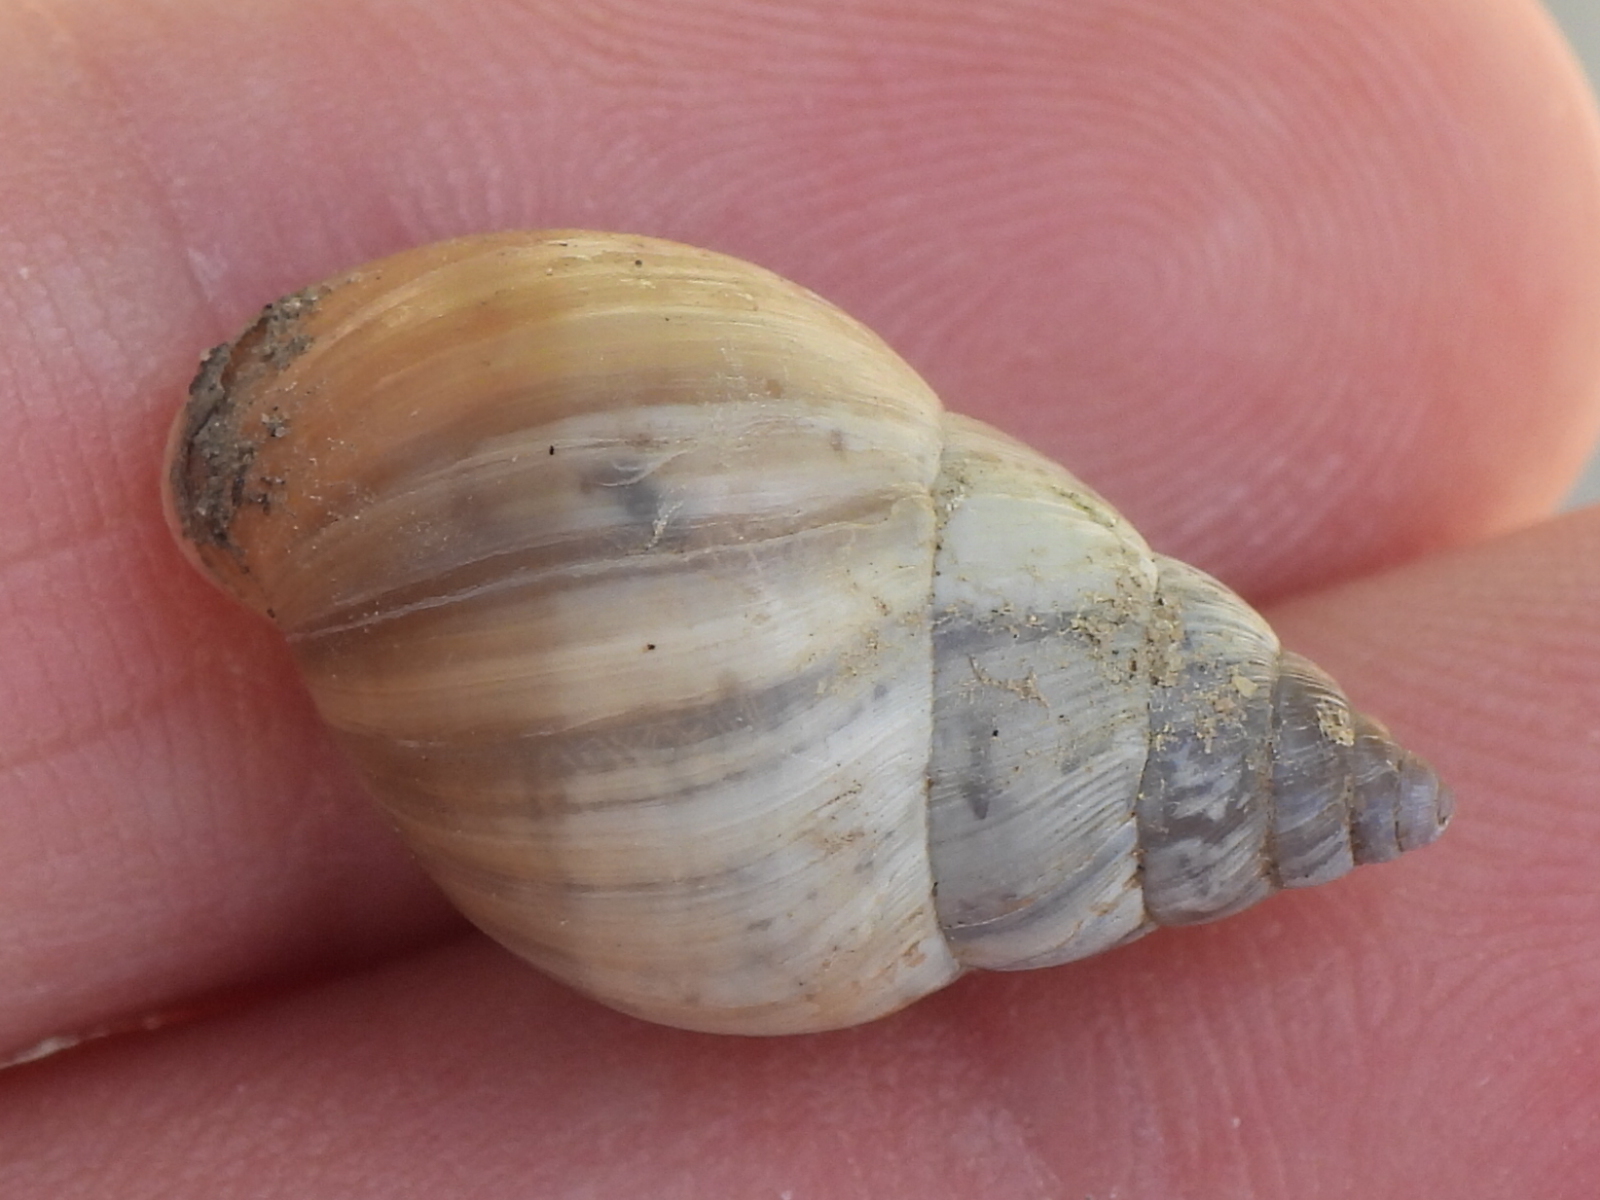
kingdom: Animalia
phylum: Mollusca
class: Gastropoda
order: Stylommatophora
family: Bulimulidae
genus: Rabdotus
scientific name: Rabdotus dealbatus
